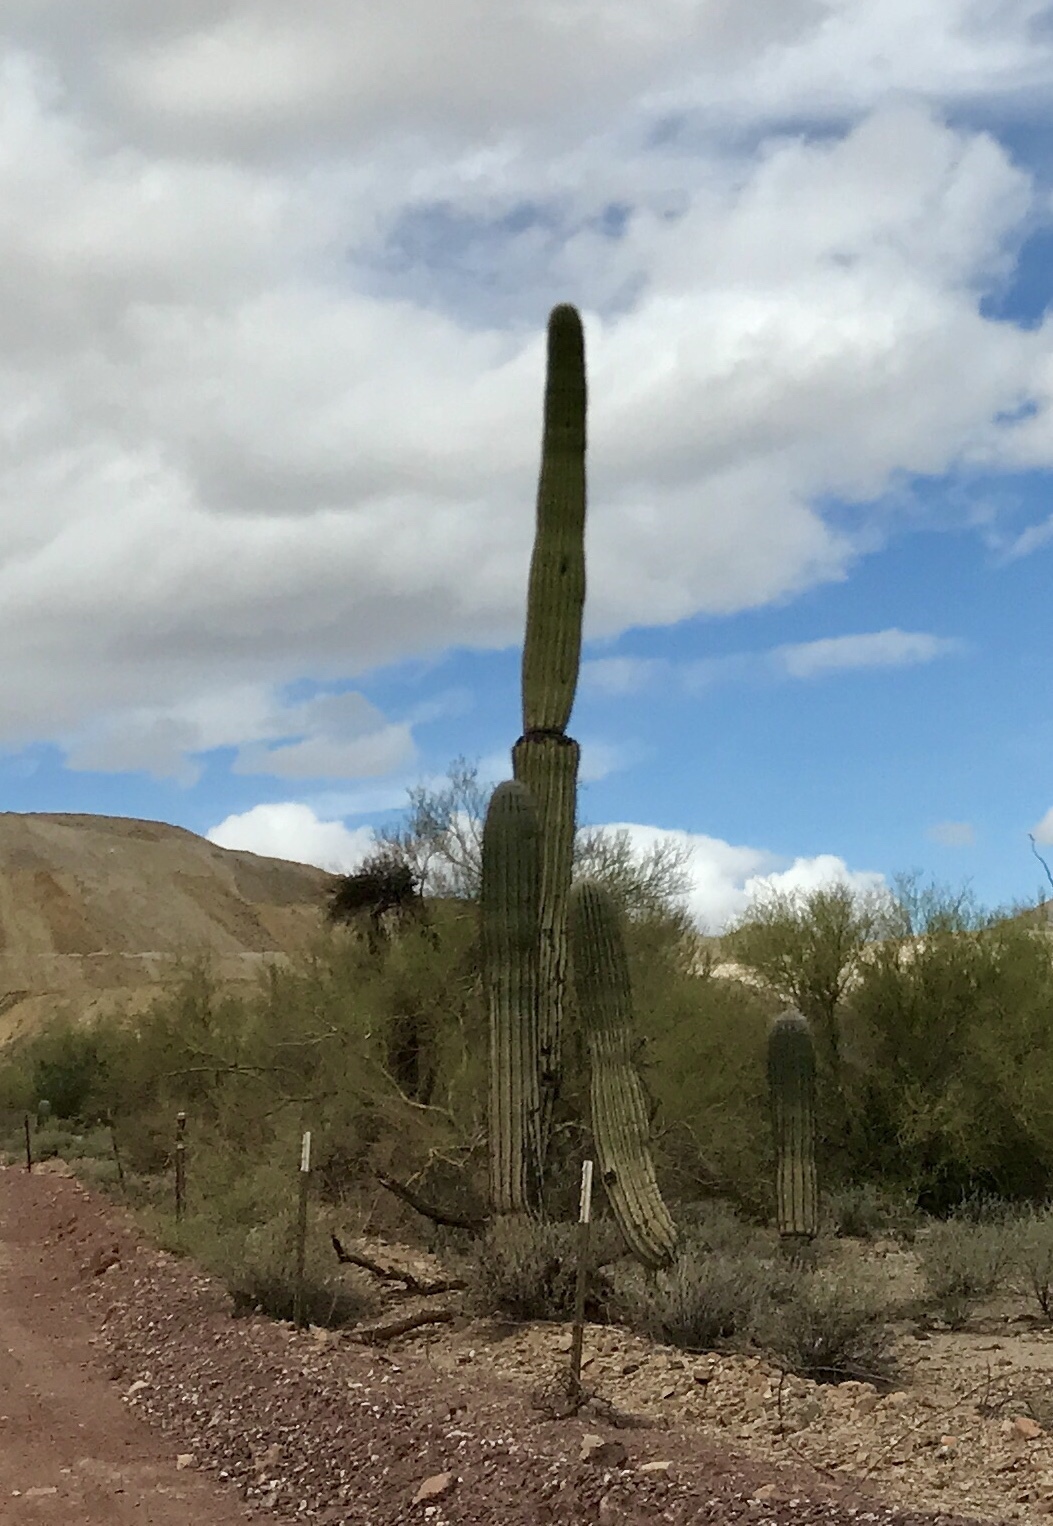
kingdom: Plantae
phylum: Tracheophyta
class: Magnoliopsida
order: Caryophyllales
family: Cactaceae
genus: Carnegiea
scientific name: Carnegiea gigantea
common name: Saguaro
